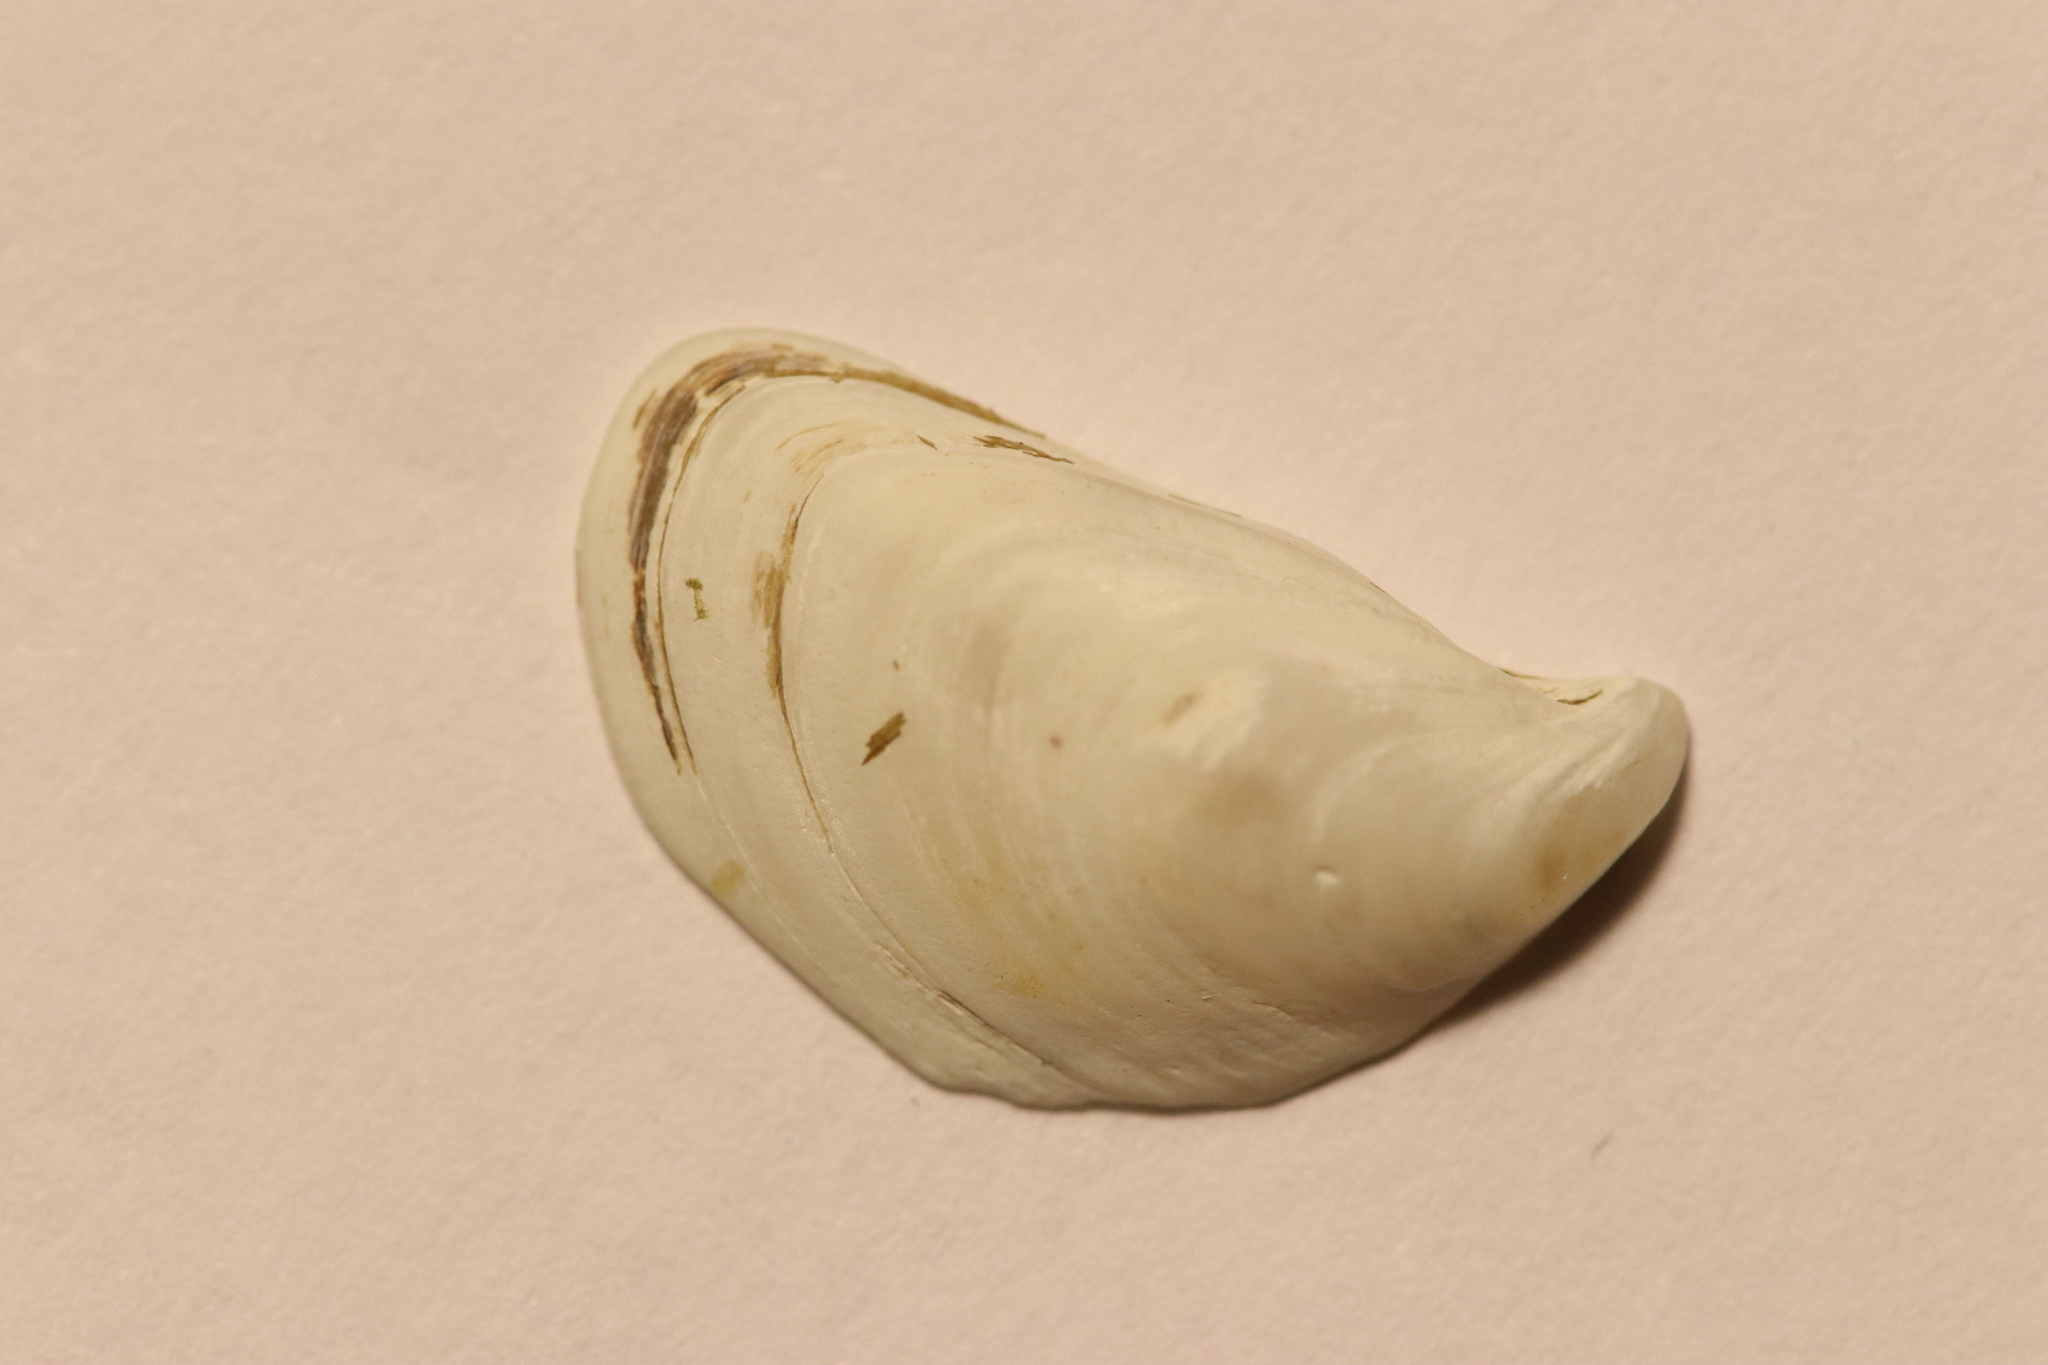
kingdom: Animalia
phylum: Mollusca
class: Bivalvia
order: Myida
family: Dreissenidae
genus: Dreissena
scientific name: Dreissena bugensis
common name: Quagga mussel
